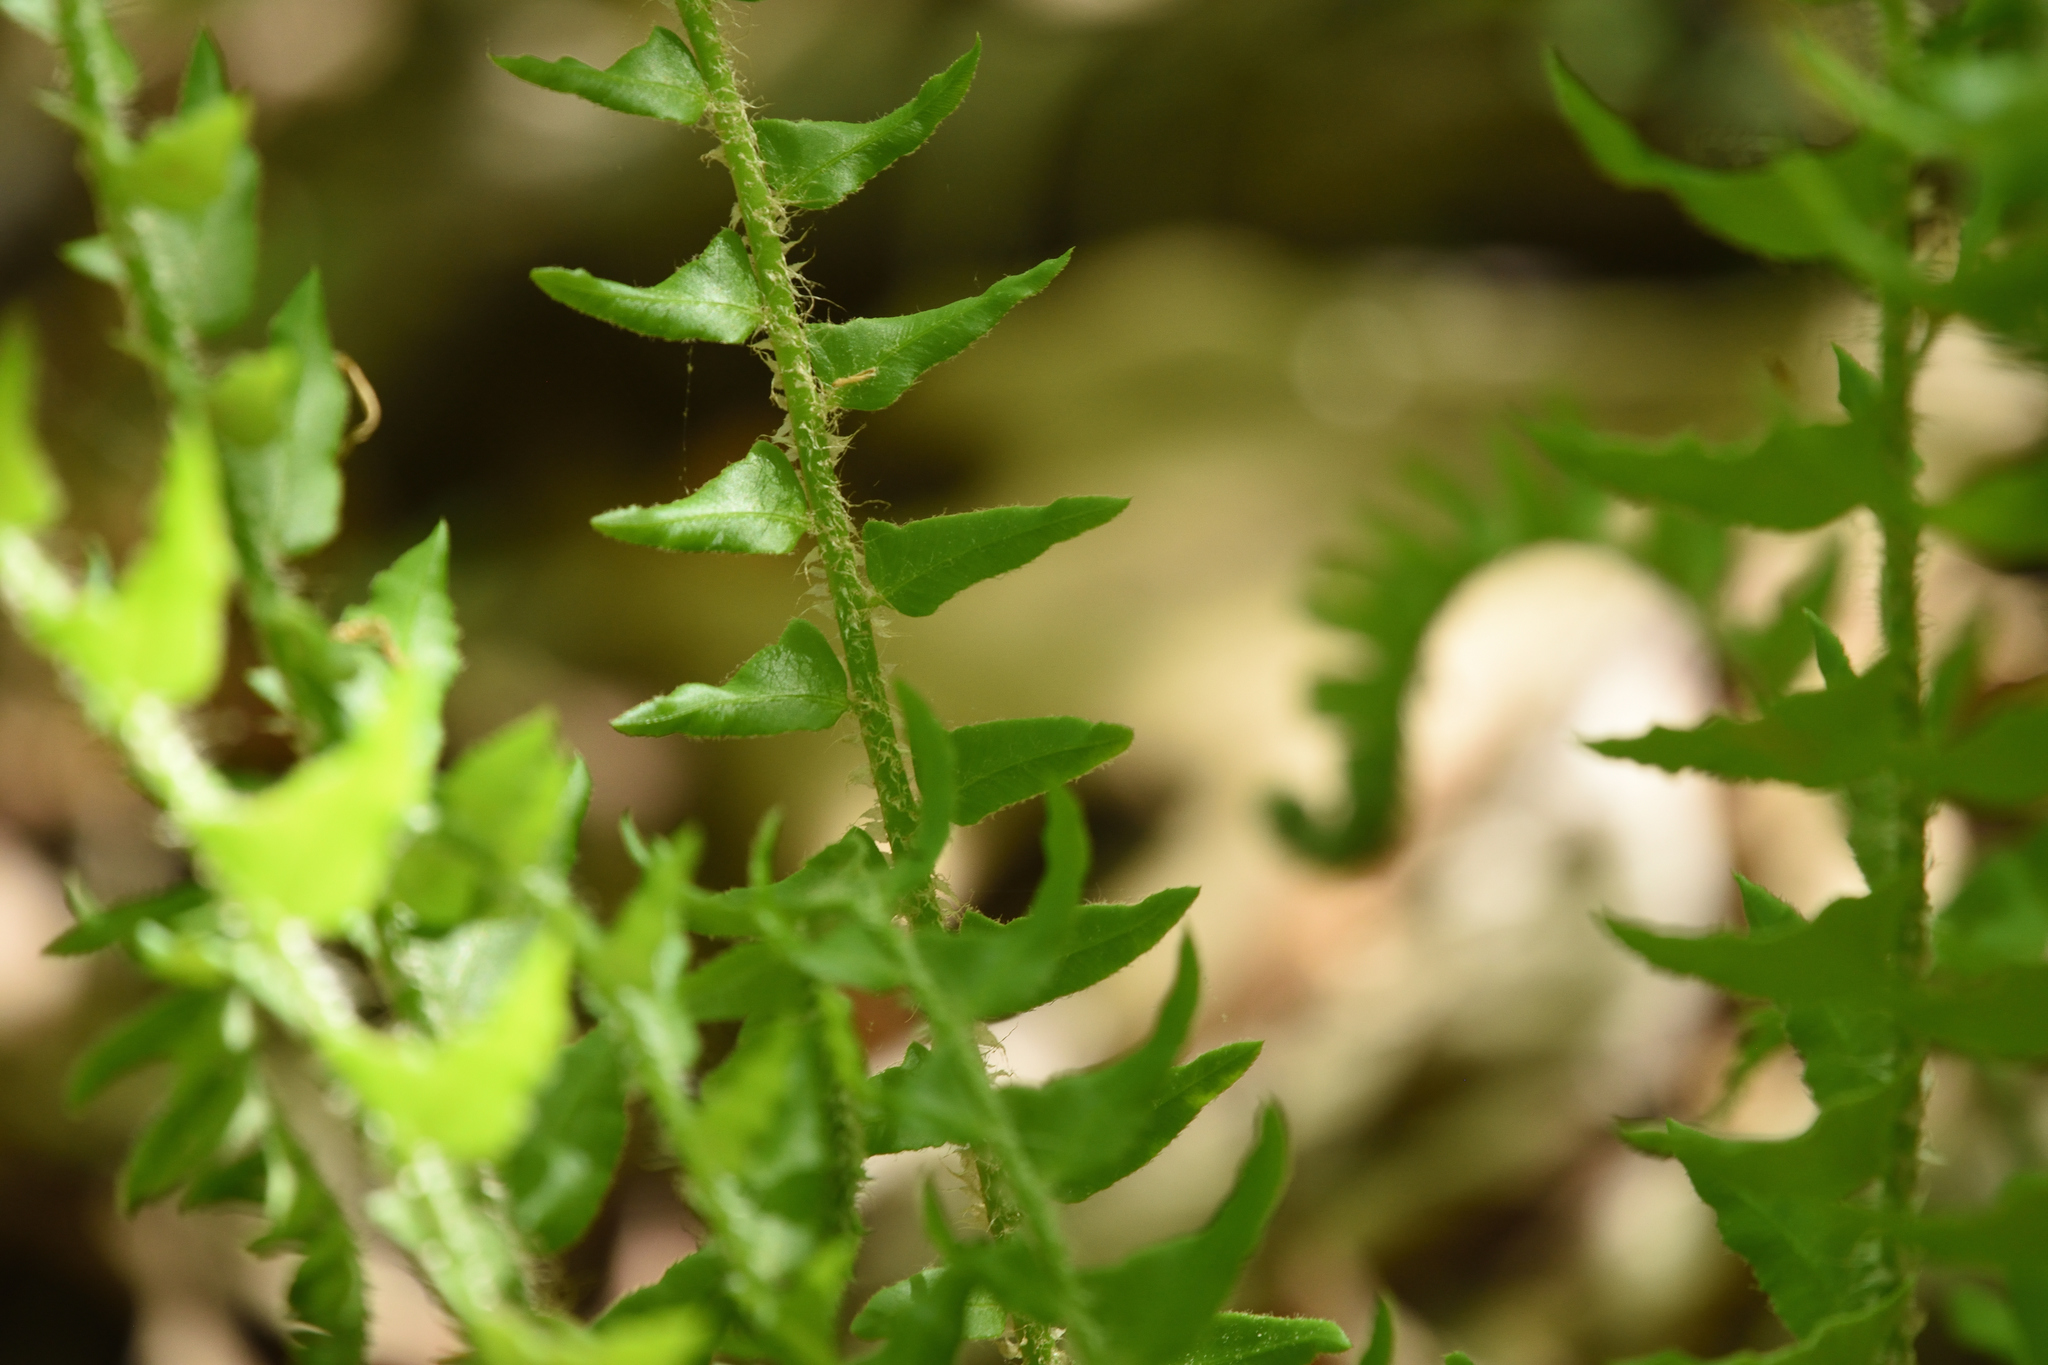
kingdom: Plantae
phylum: Tracheophyta
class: Polypodiopsida
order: Polypodiales
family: Dryopteridaceae
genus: Polystichum
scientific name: Polystichum acrostichoides
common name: Christmas fern
